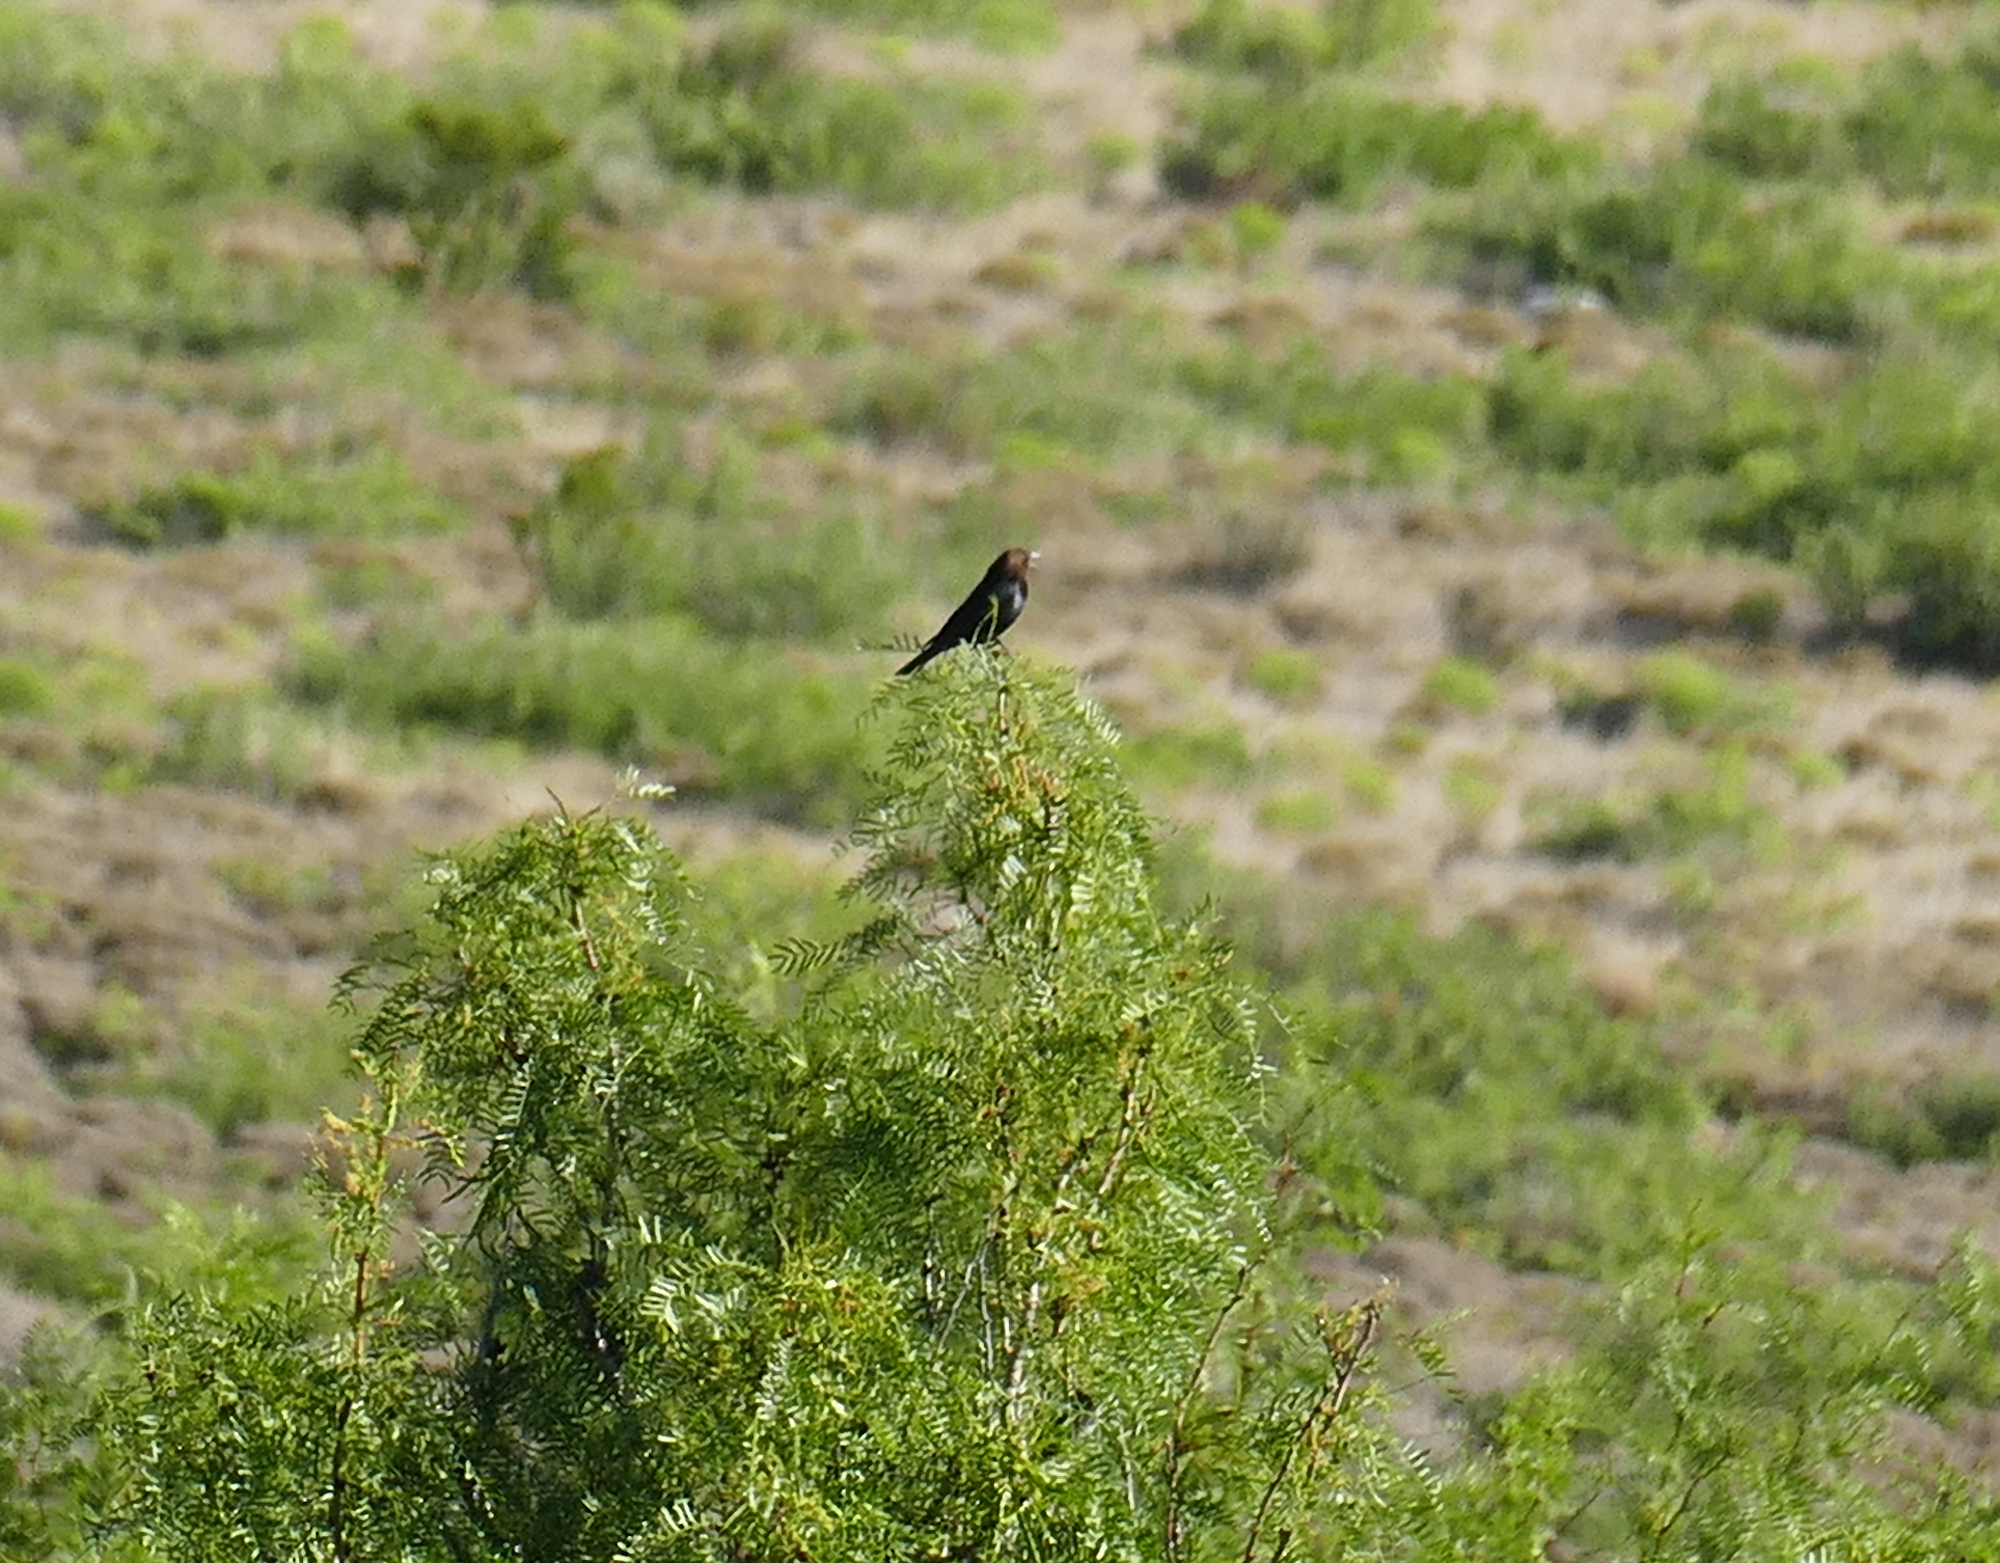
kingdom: Animalia
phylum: Chordata
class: Aves
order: Passeriformes
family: Icteridae
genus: Molothrus
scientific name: Molothrus ater
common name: Brown-headed cowbird
